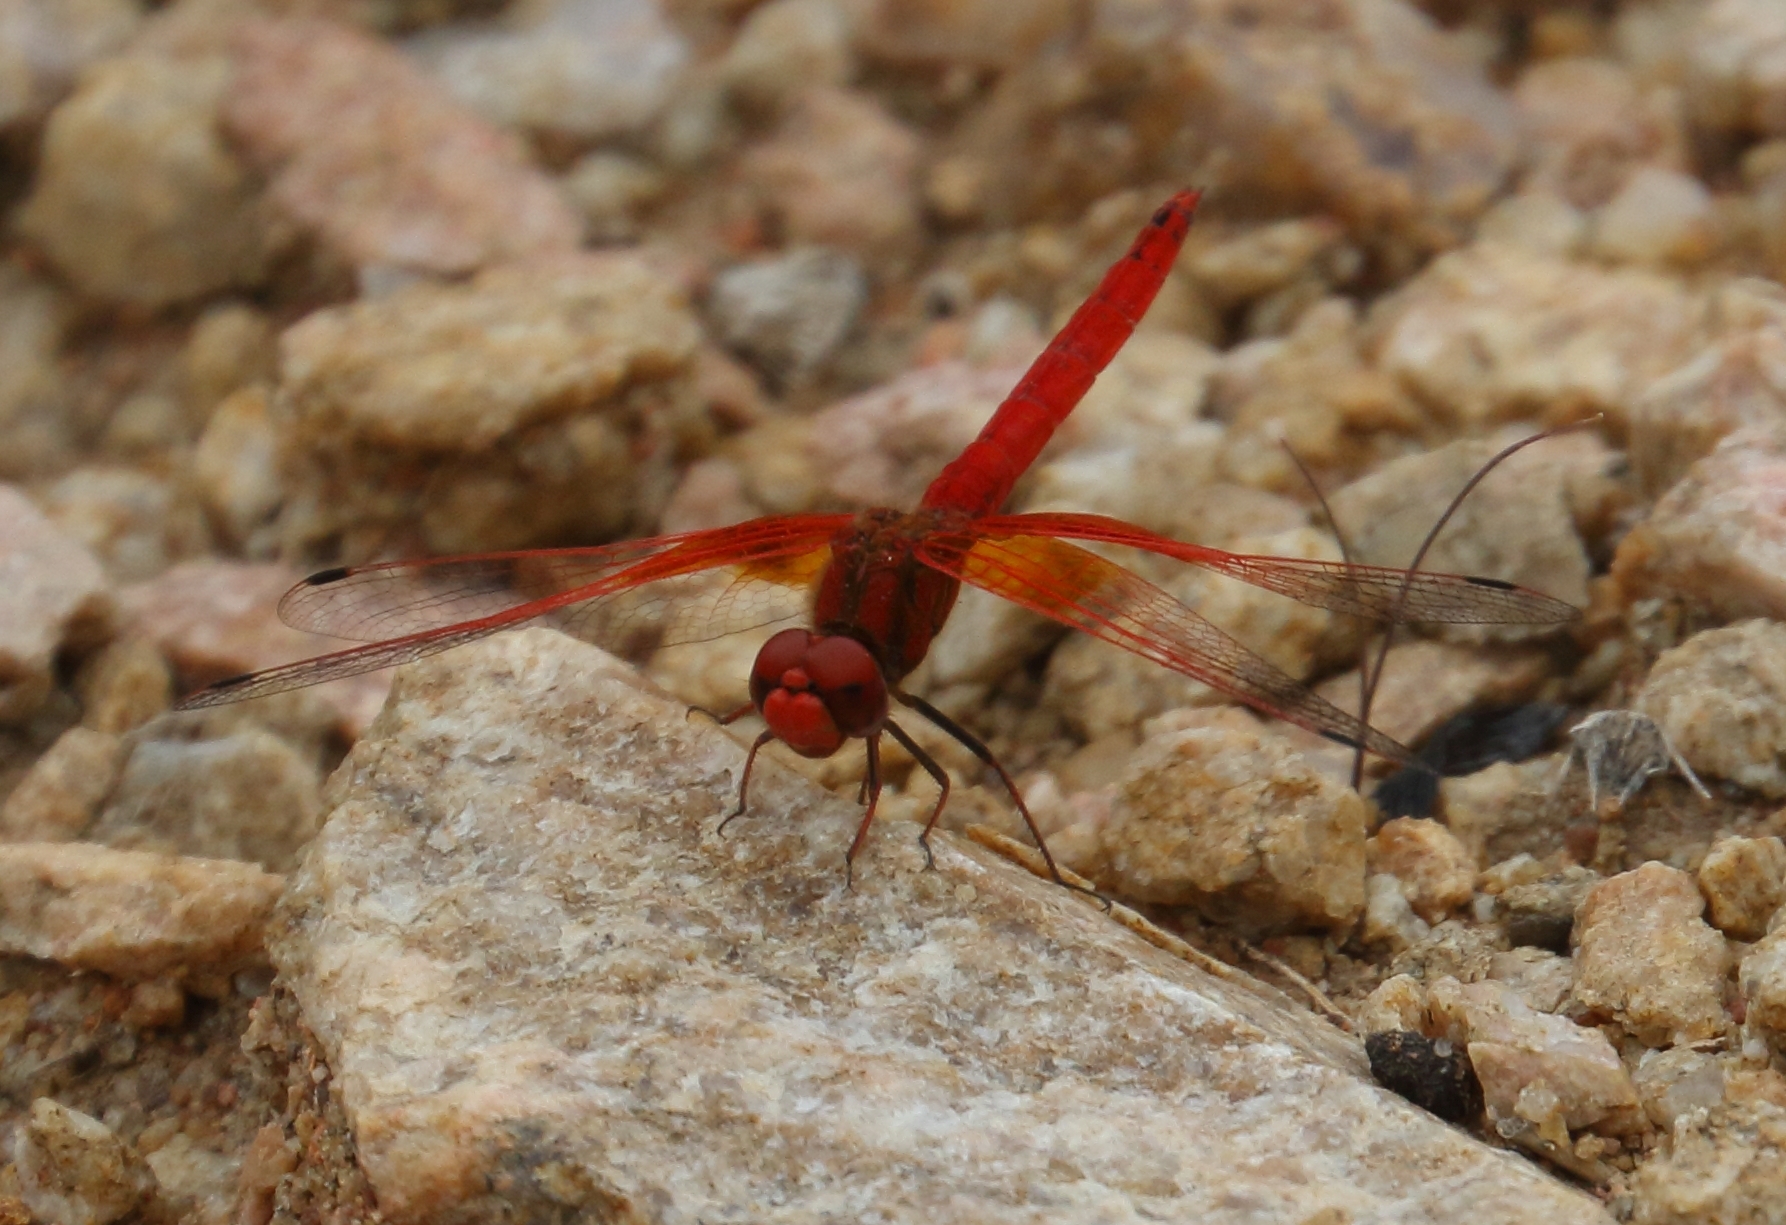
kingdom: Animalia
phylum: Arthropoda
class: Insecta
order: Odonata
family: Libellulidae
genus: Trithemis
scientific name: Trithemis kirbyi
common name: Kirby's dropwing
